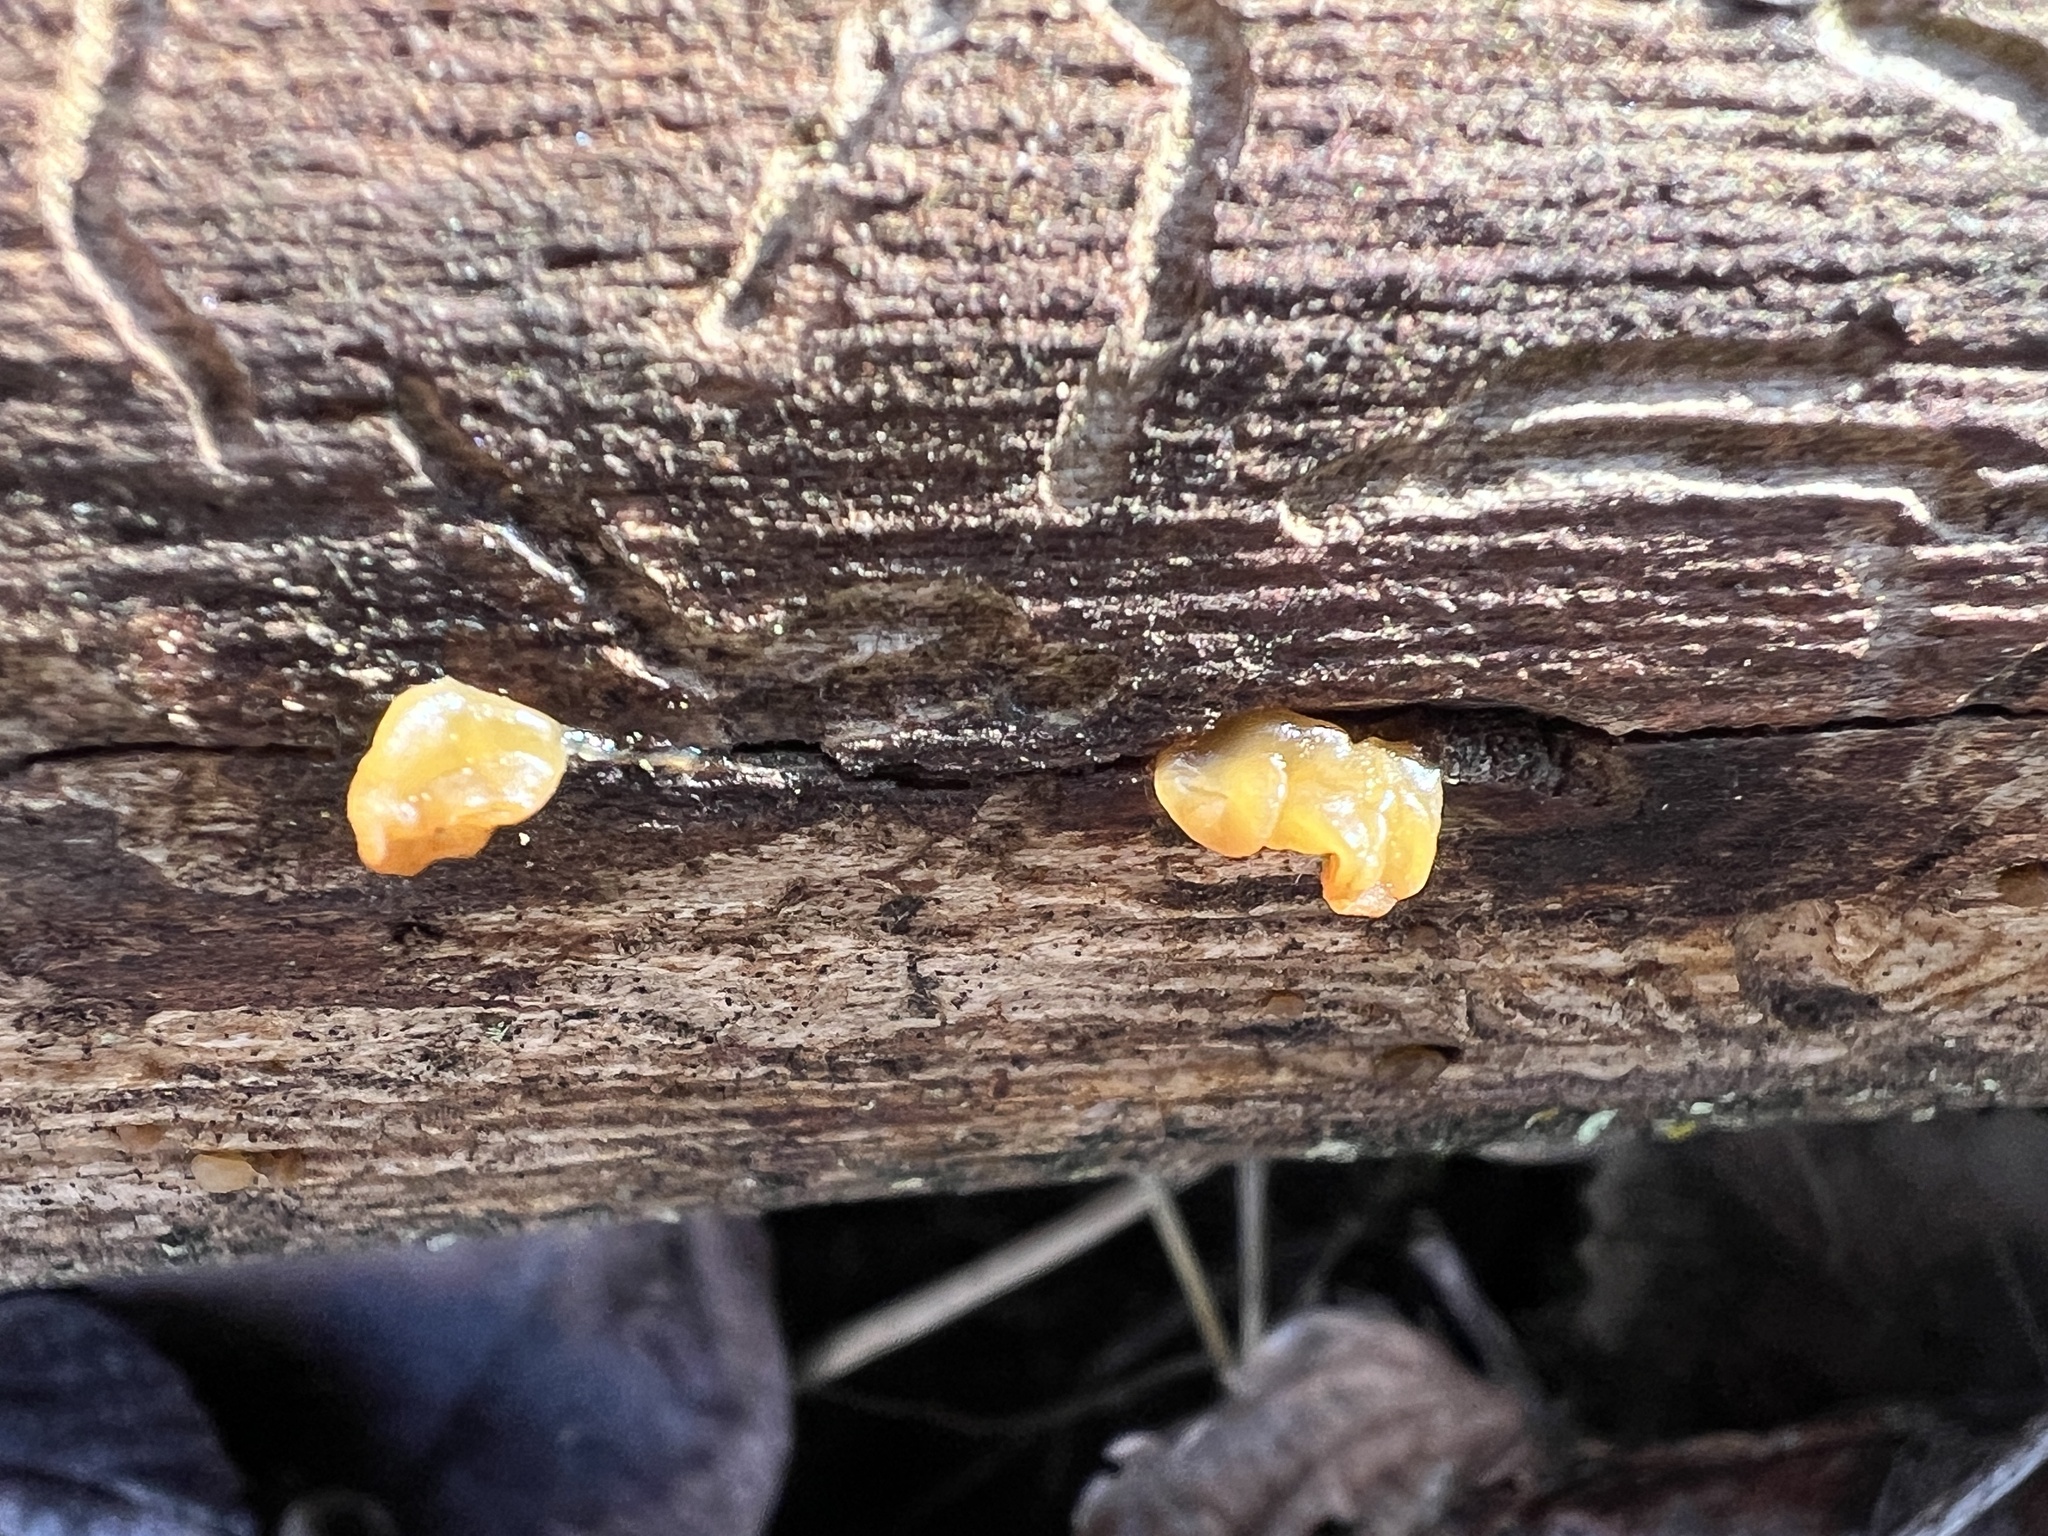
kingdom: Fungi
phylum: Basidiomycota
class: Tremellomycetes
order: Tremellales
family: Tremellaceae
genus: Tremella
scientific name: Tremella mesenterica
